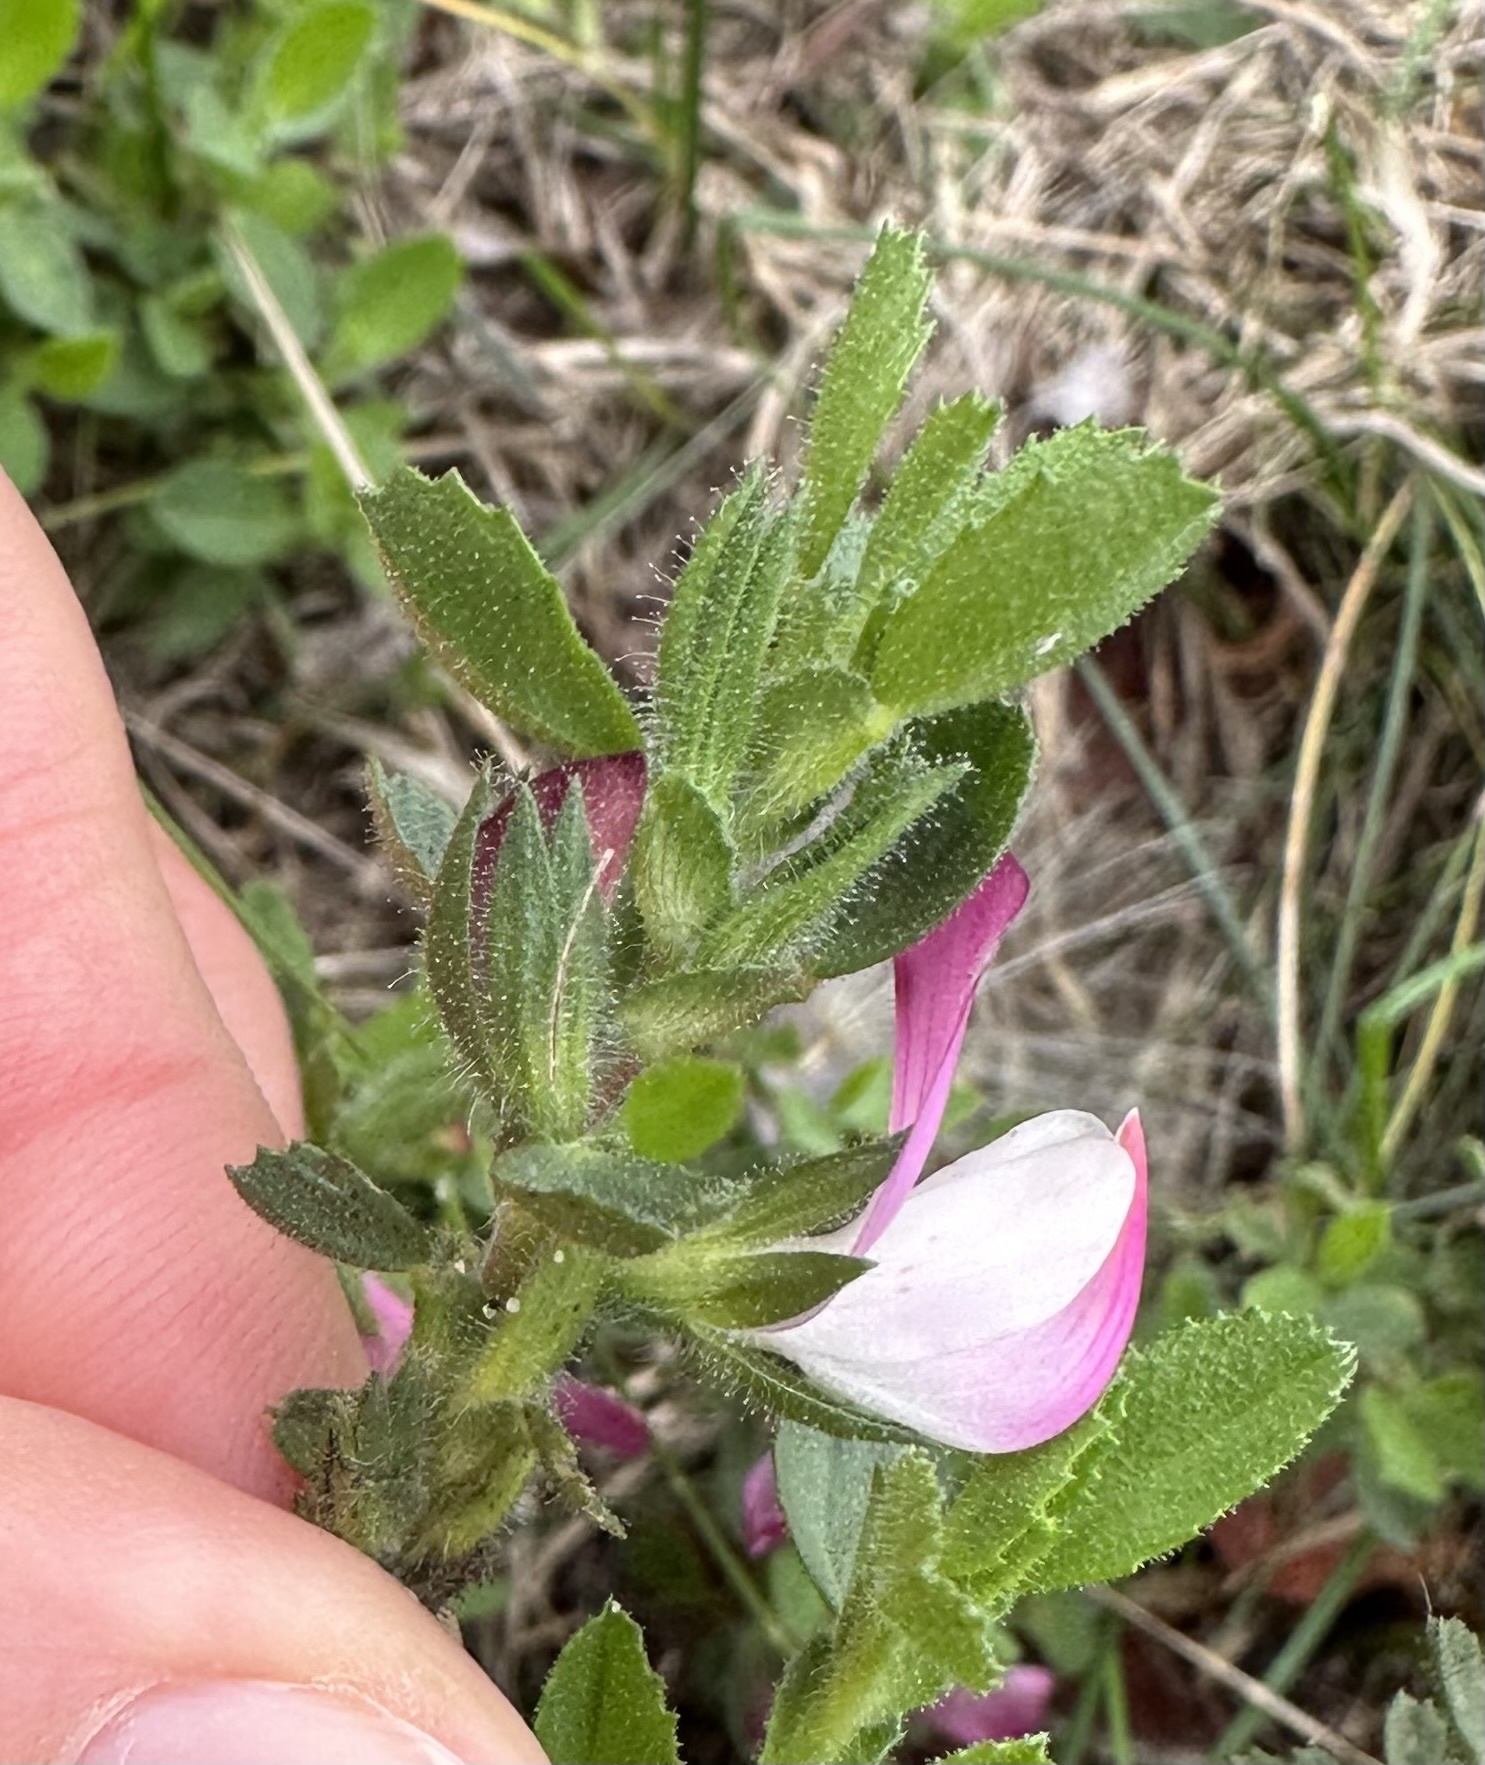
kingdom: Plantae
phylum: Tracheophyta
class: Magnoliopsida
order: Fabales
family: Fabaceae
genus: Ononis
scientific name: Ononis spinosa
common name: Spiny restharrow
